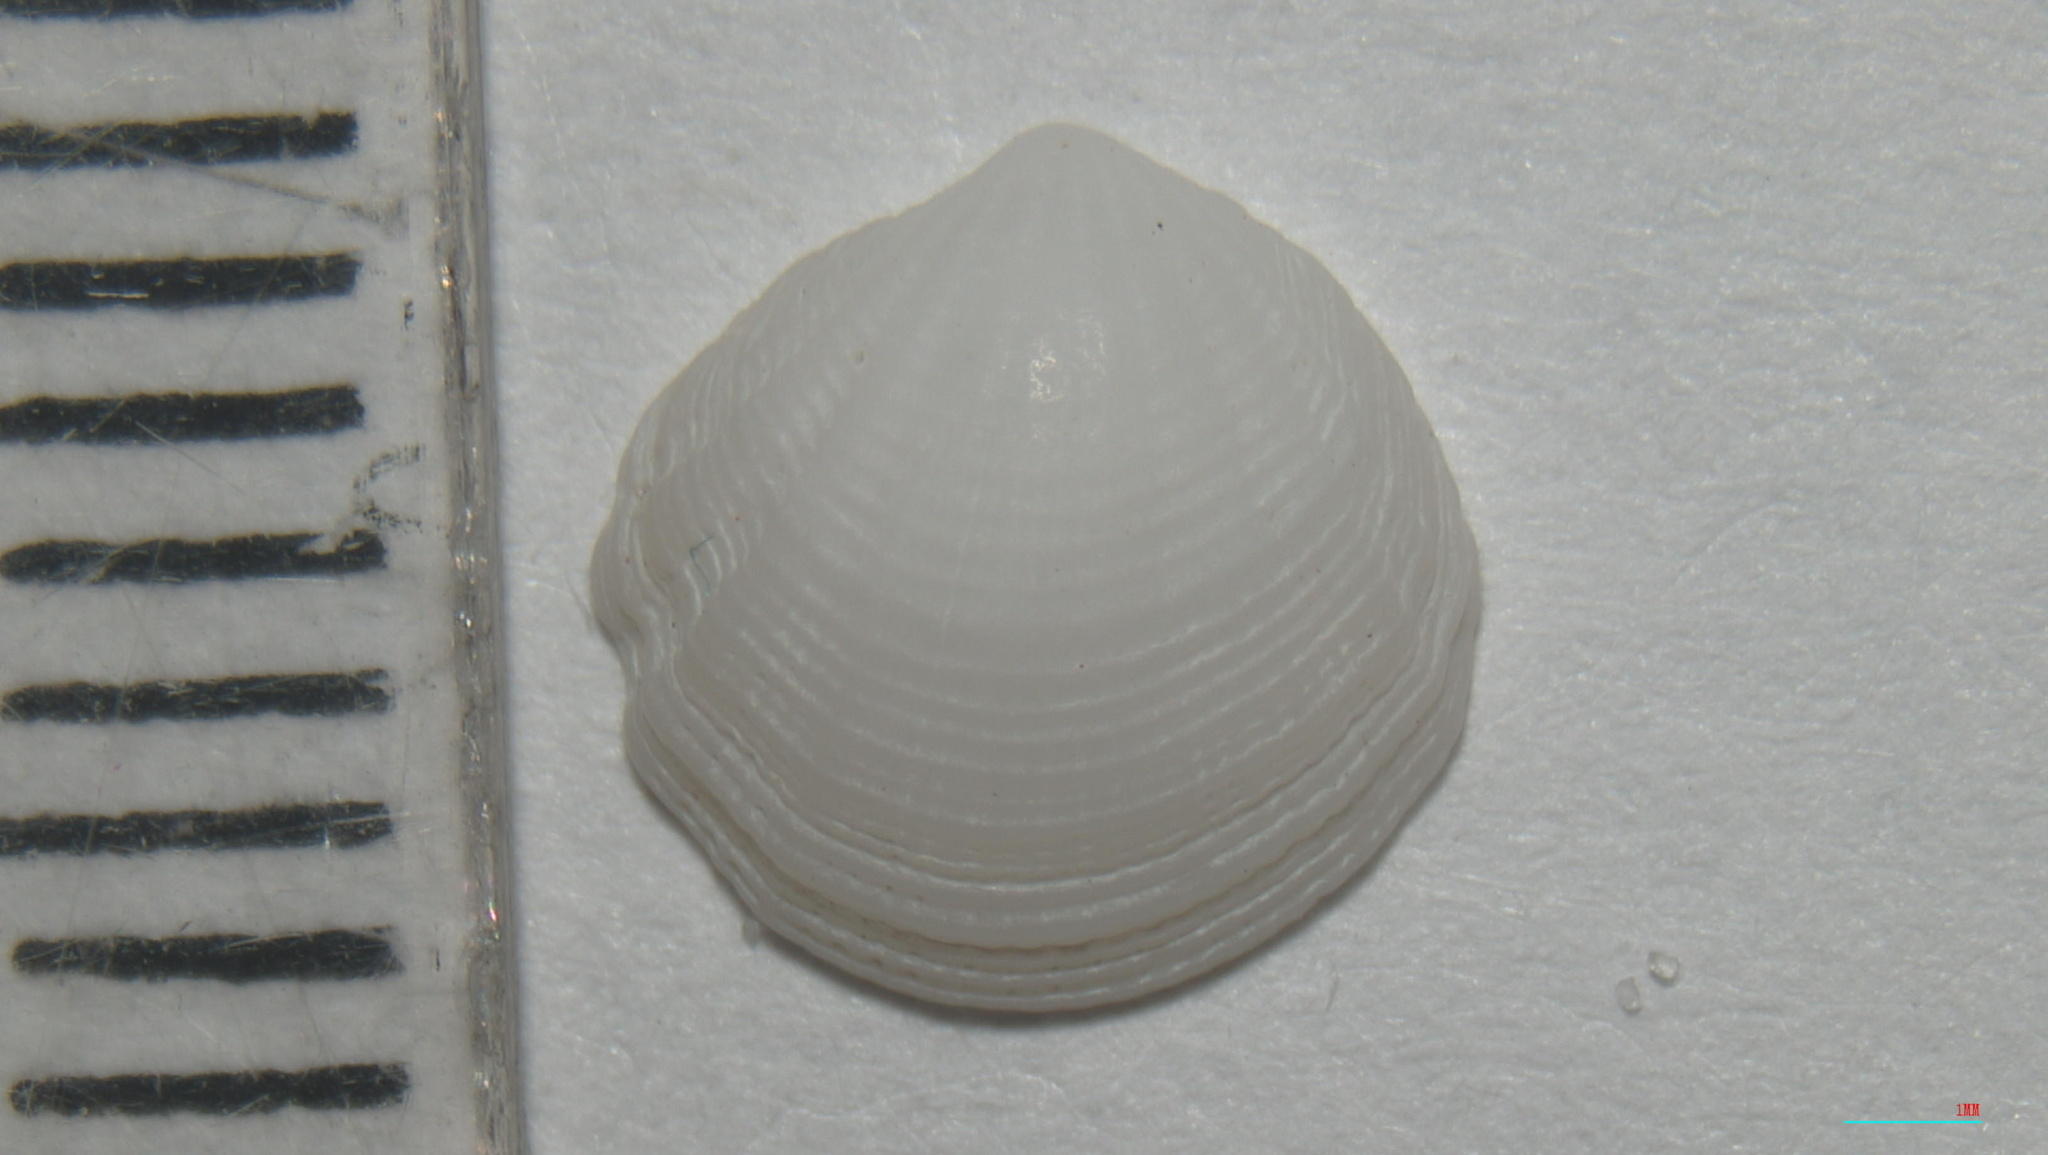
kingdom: Animalia
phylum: Mollusca
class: Bivalvia
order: Lucinida
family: Lucinidae
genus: Radiolucina
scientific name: Radiolucina amianta
